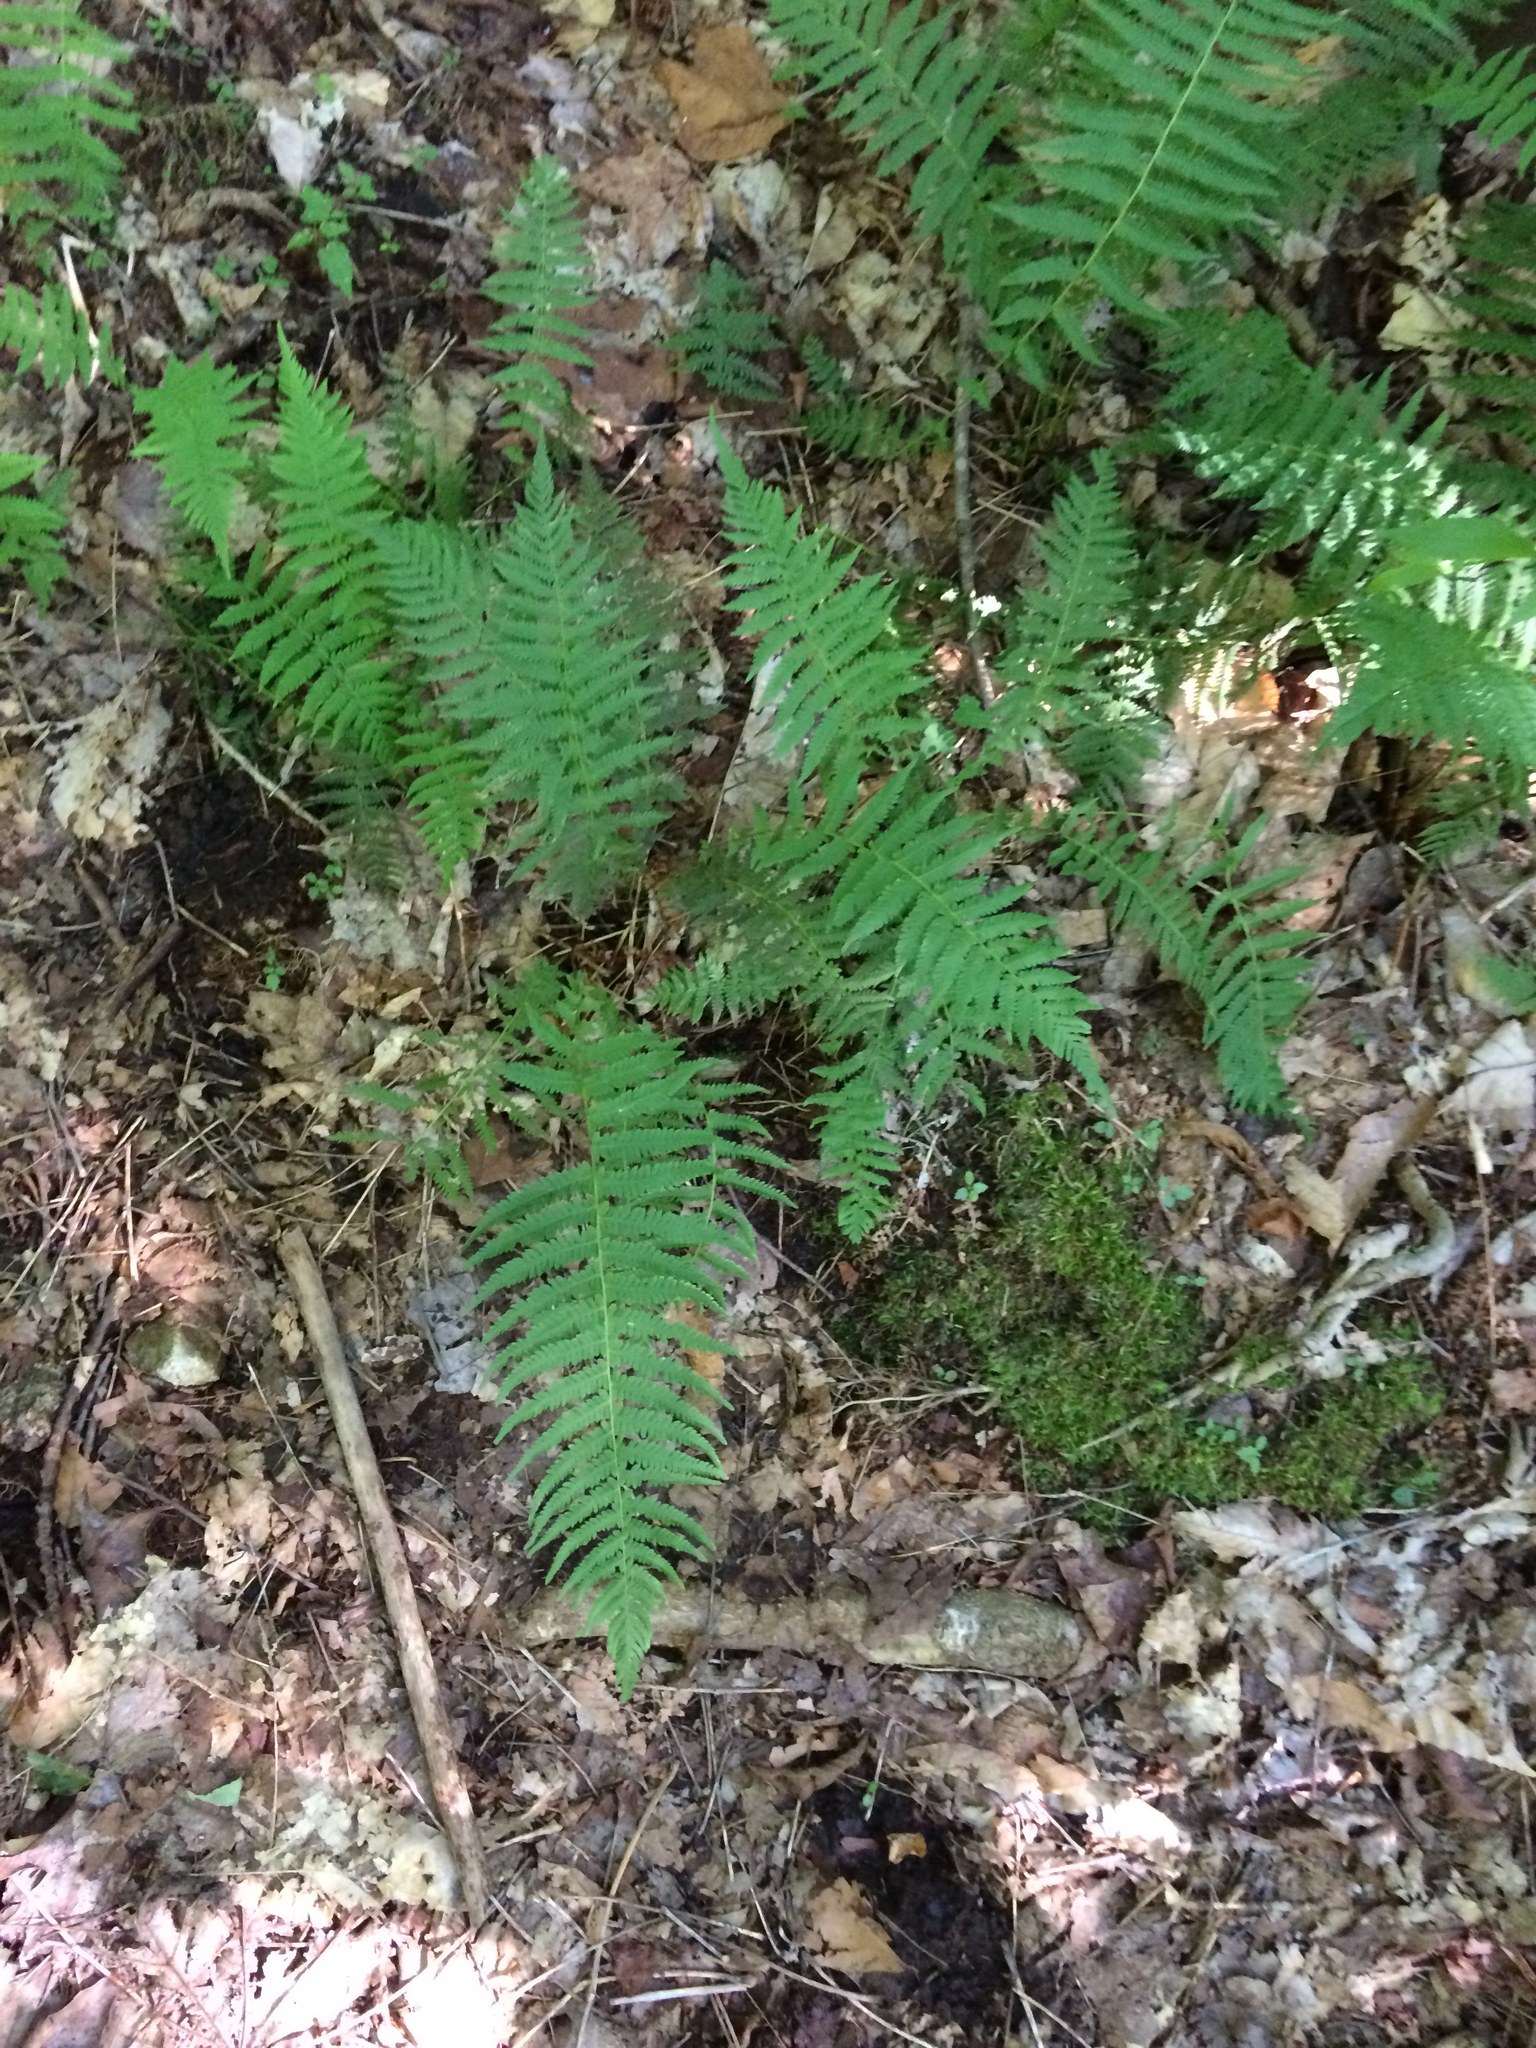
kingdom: Plantae
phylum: Tracheophyta
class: Polypodiopsida
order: Polypodiales
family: Thelypteridaceae
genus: Amauropelta
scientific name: Amauropelta noveboracensis
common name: New york fern
